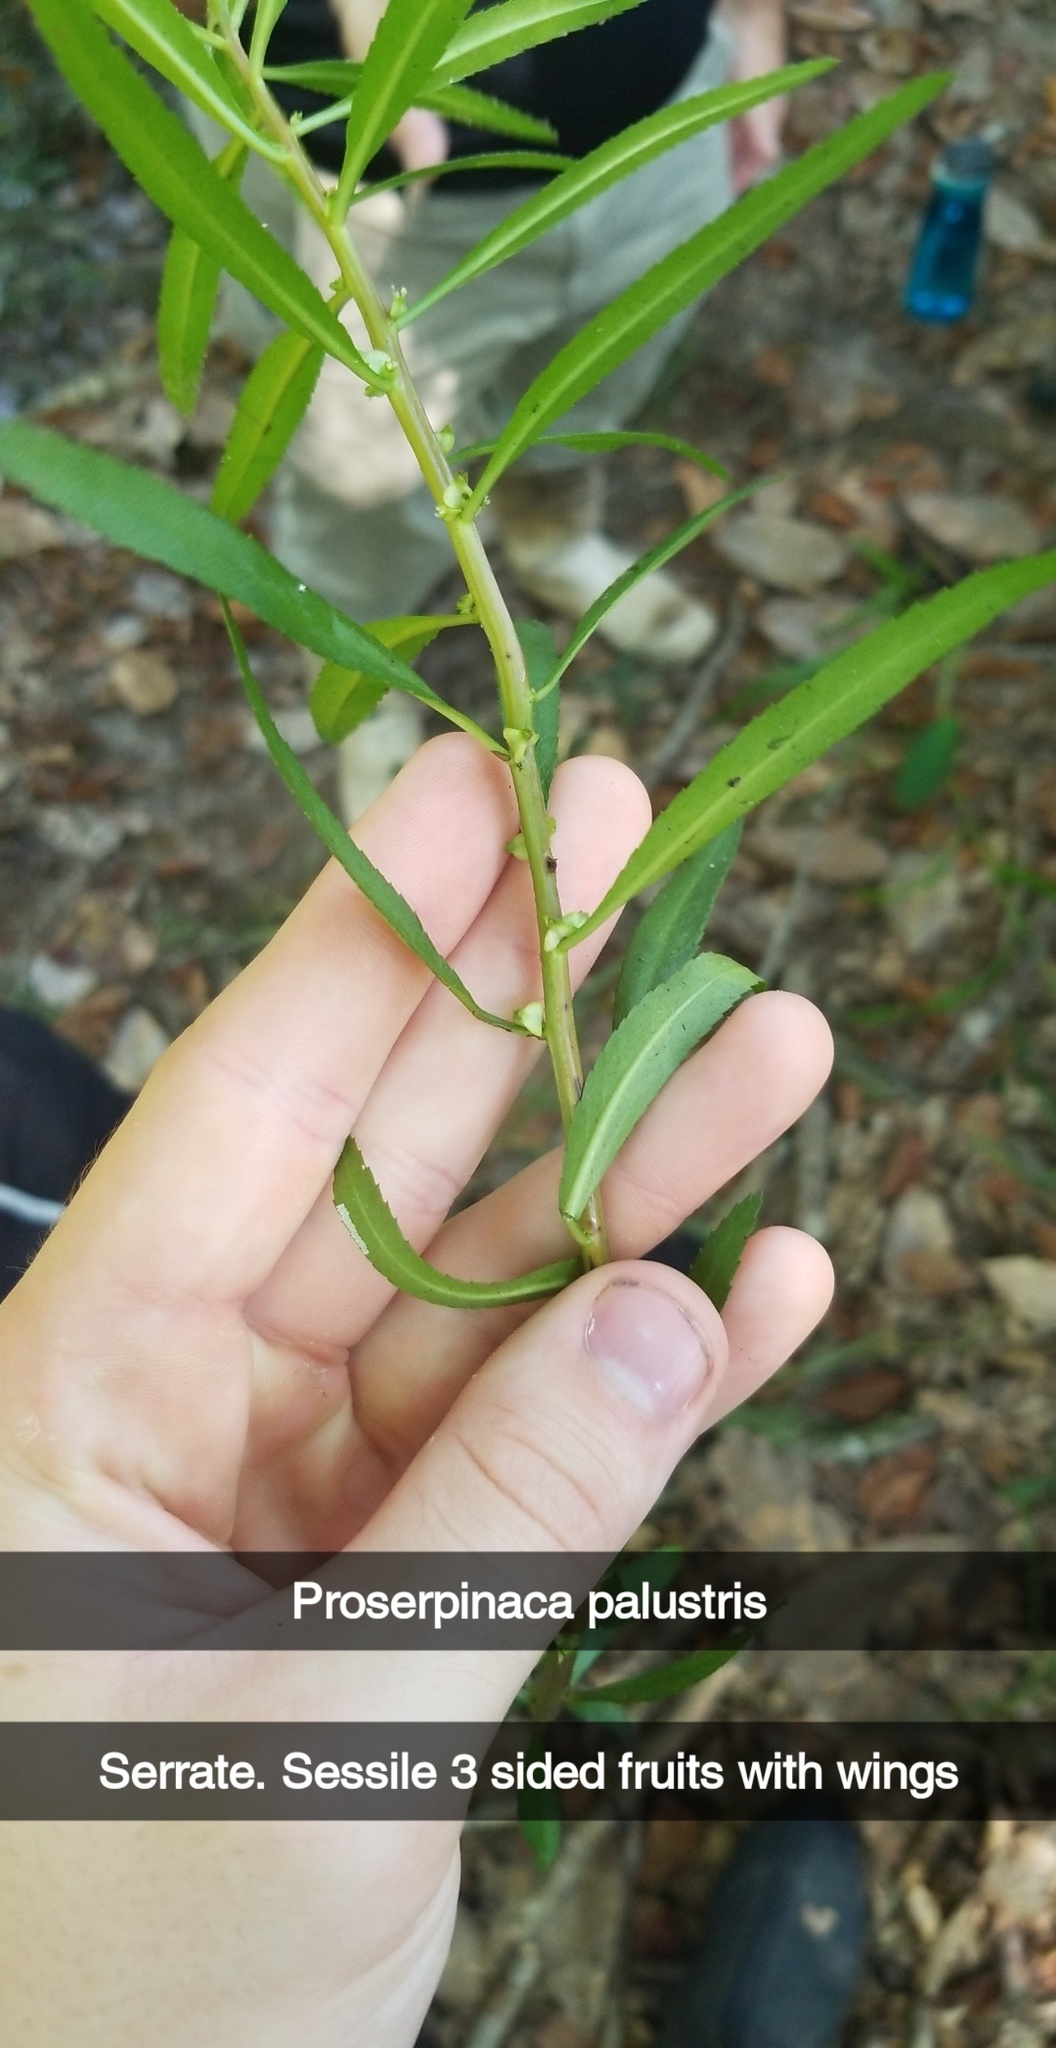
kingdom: Plantae
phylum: Tracheophyta
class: Magnoliopsida
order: Saxifragales
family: Haloragaceae
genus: Proserpinaca
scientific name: Proserpinaca palustris
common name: Marsh mermaidweed
